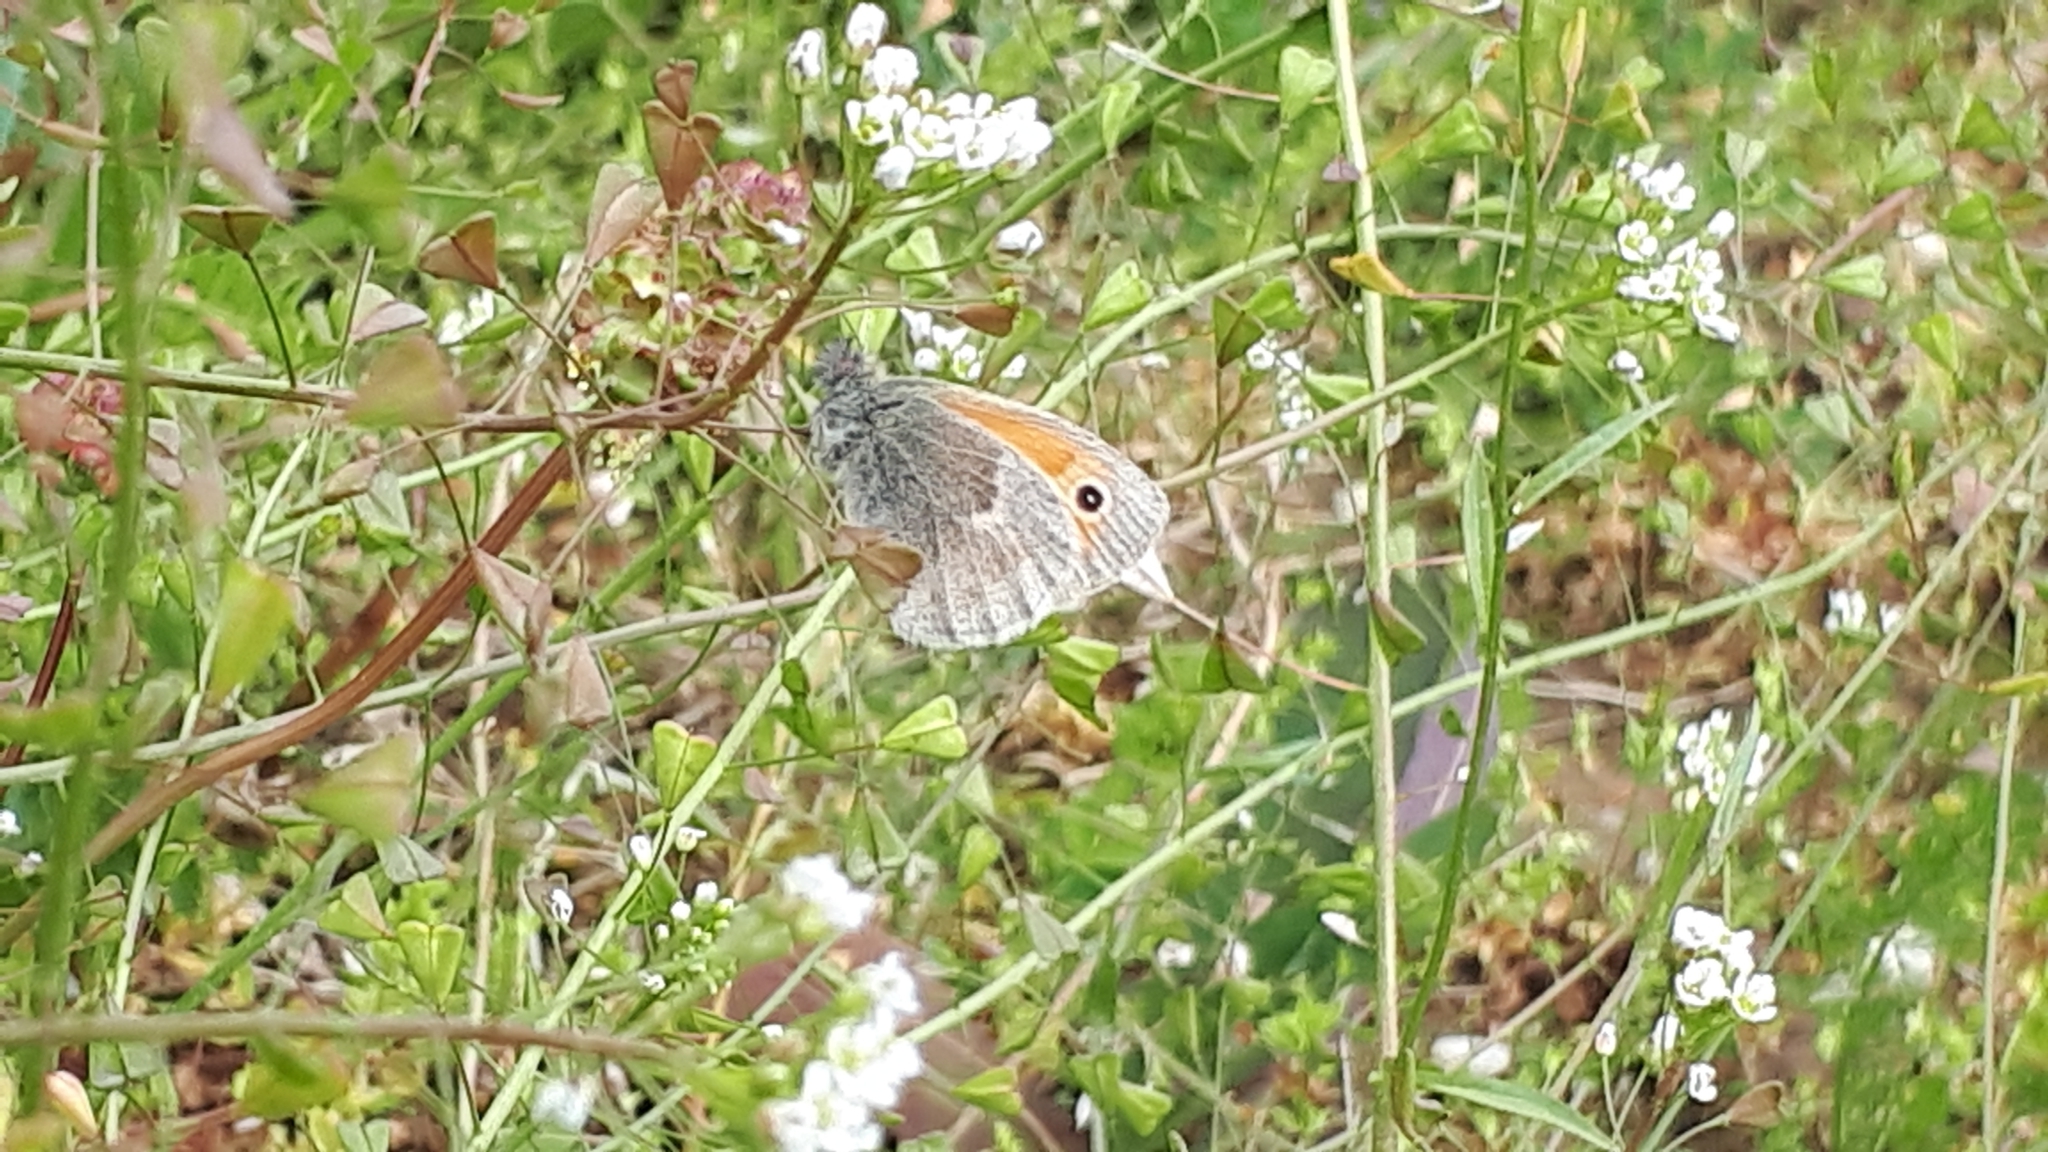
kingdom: Animalia
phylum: Arthropoda
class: Insecta
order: Lepidoptera
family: Nymphalidae
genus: Coenonympha
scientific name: Coenonympha pamphilus
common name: Small heath
